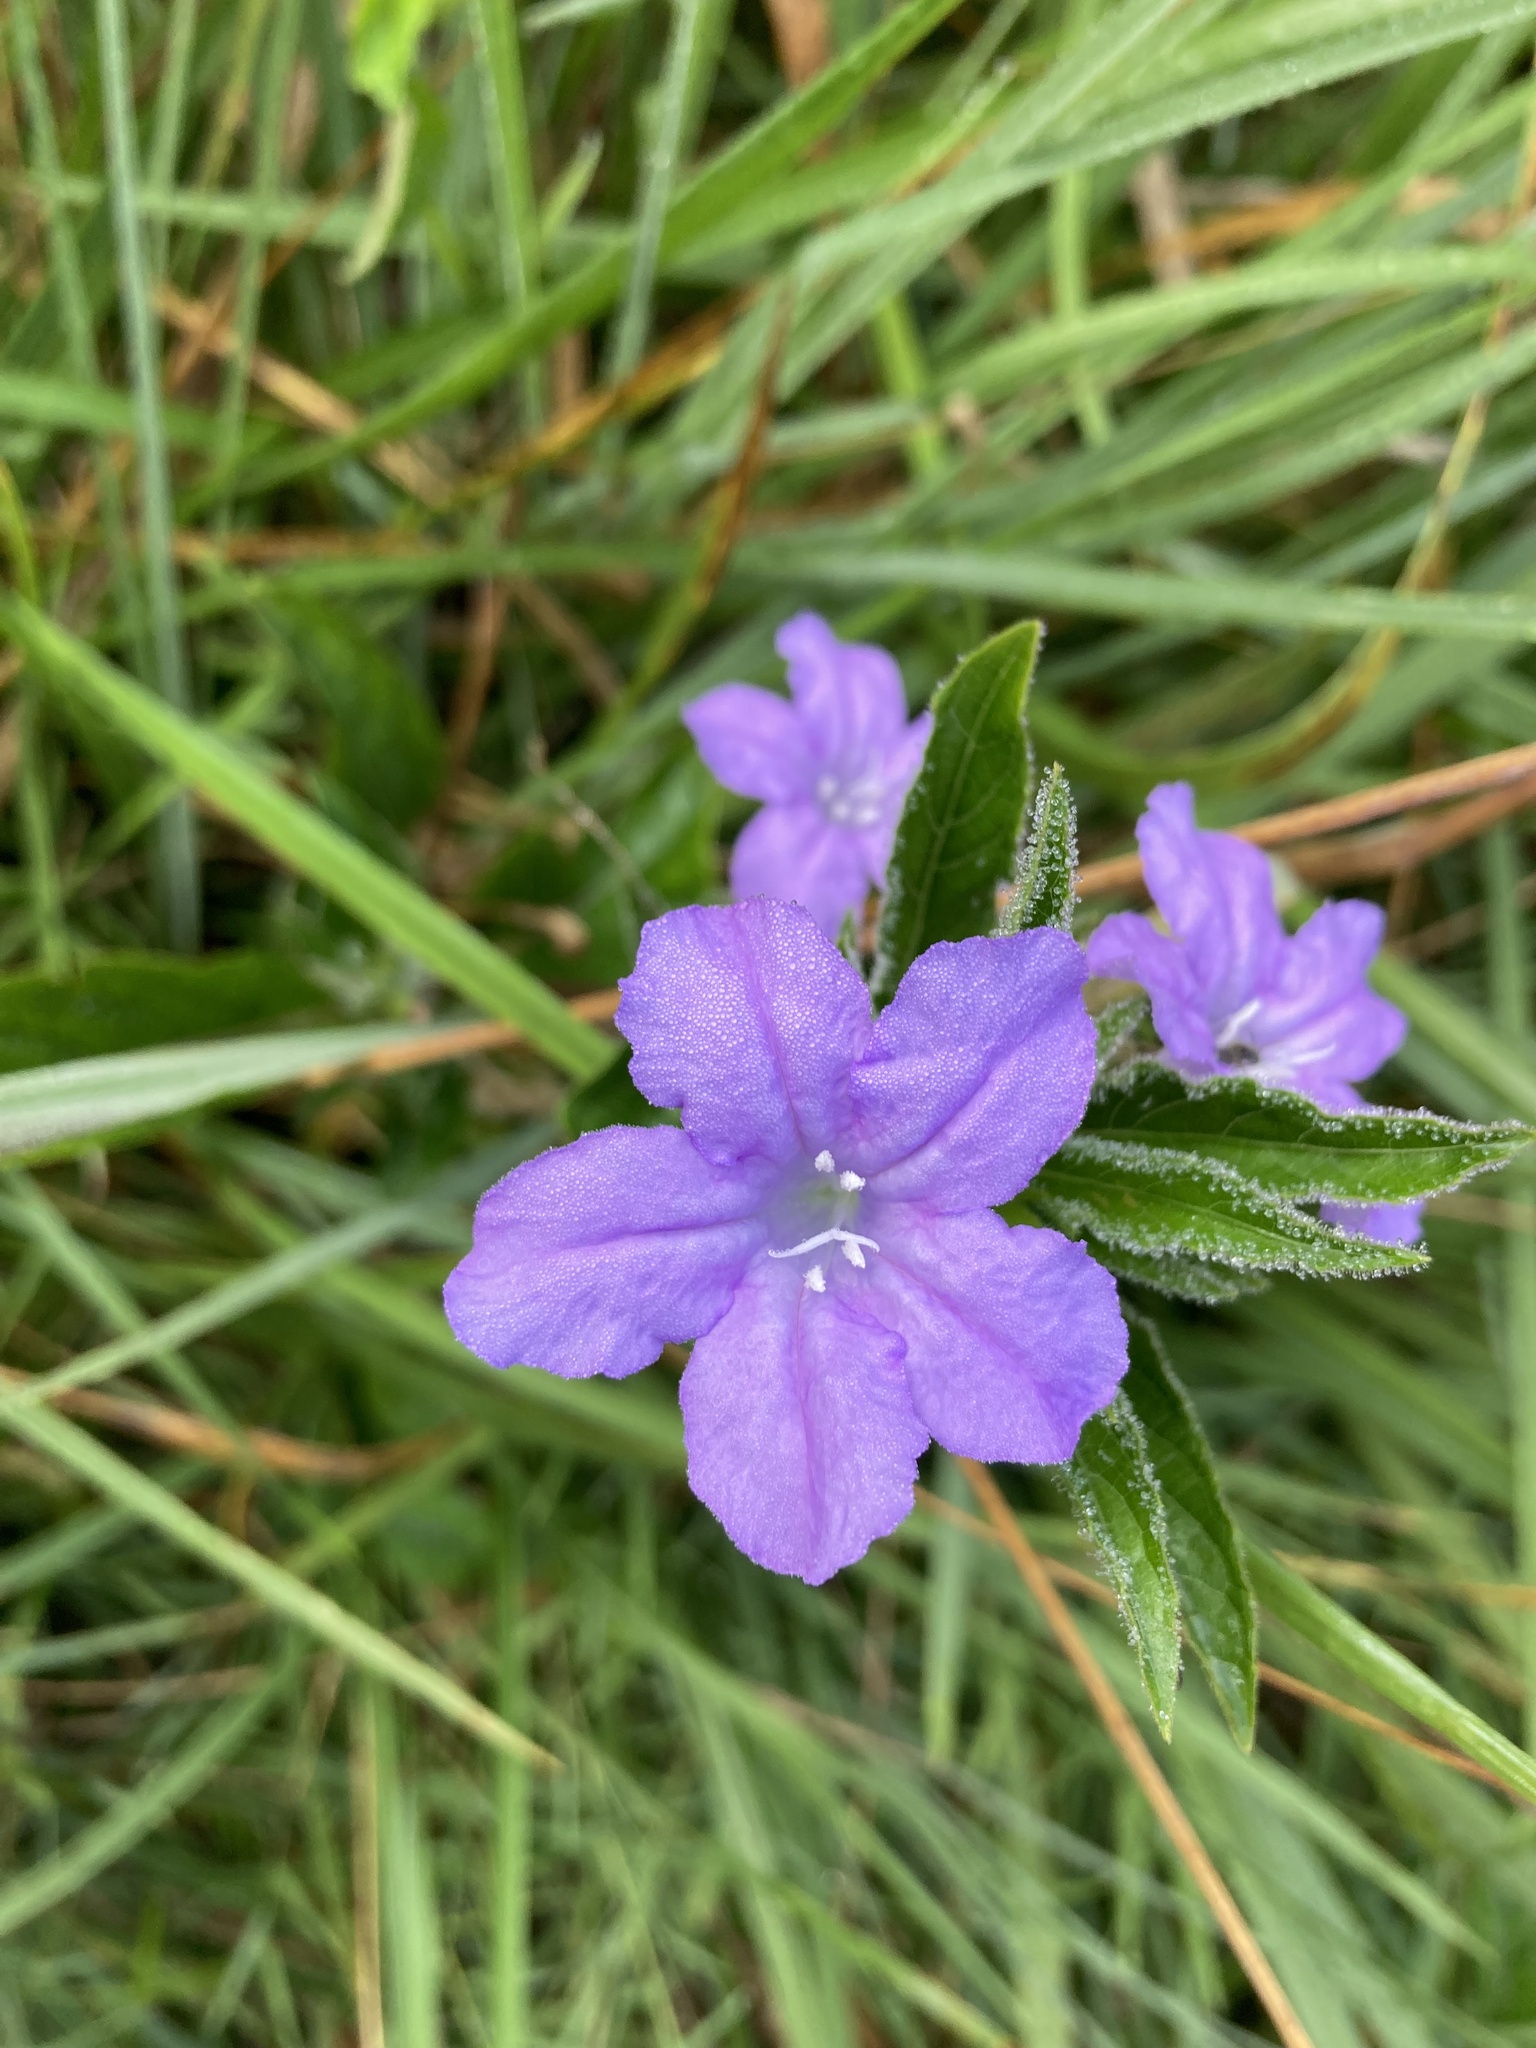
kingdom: Plantae
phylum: Tracheophyta
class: Magnoliopsida
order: Lamiales
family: Acanthaceae
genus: Ruellia
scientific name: Ruellia caroliniensis
